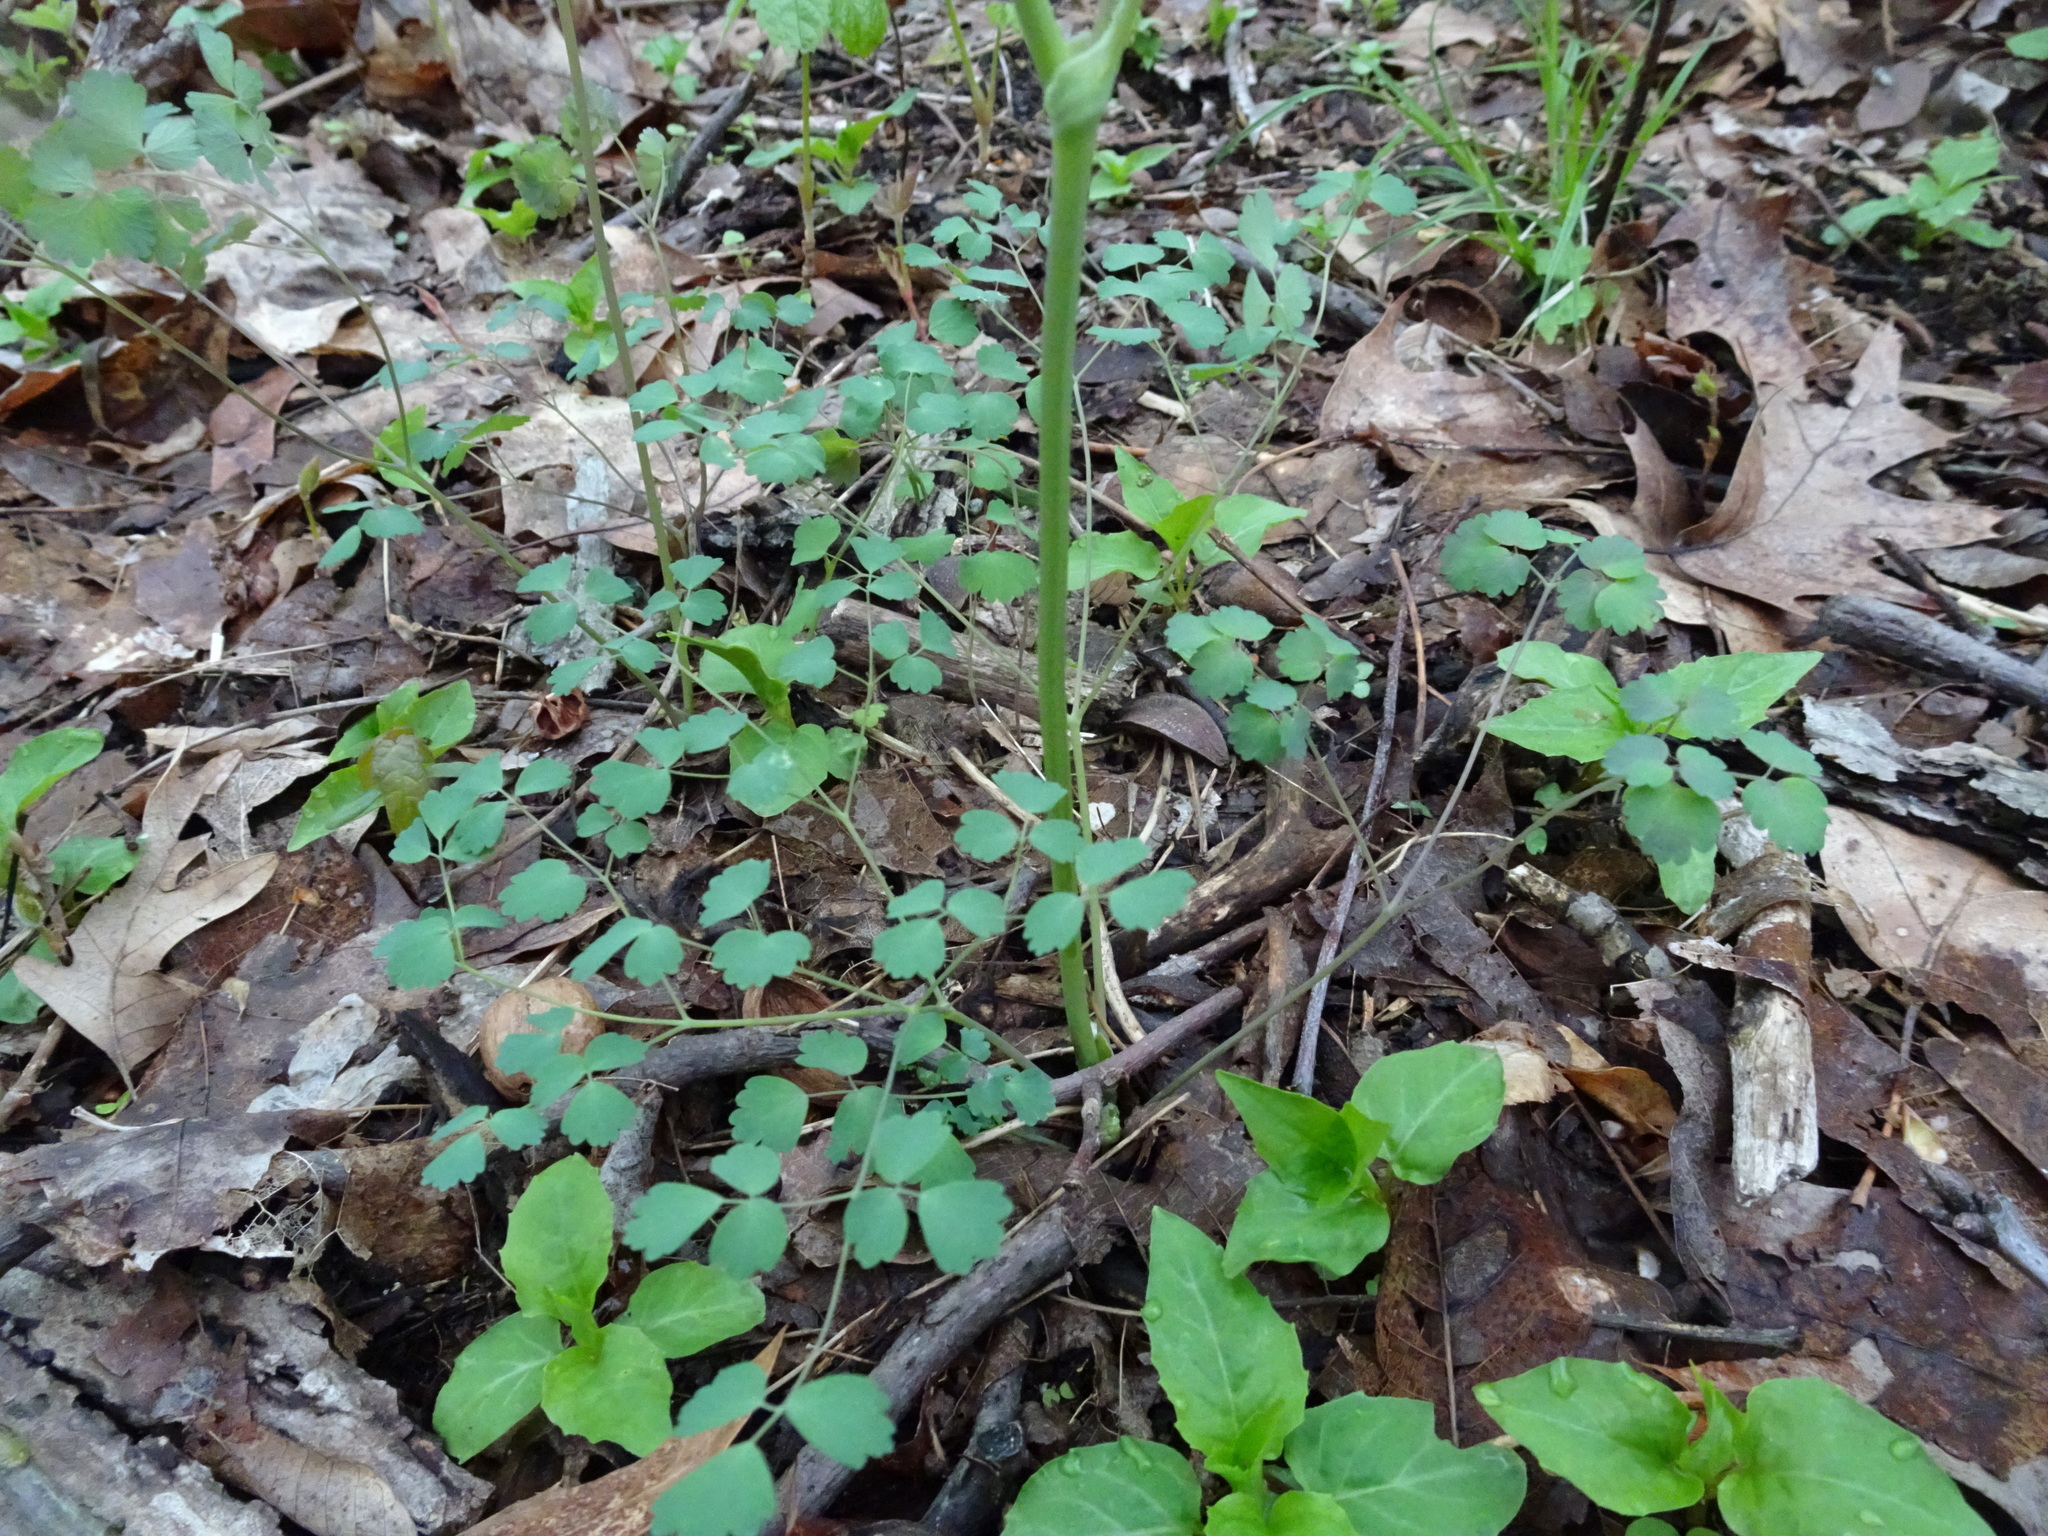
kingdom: Plantae
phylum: Tracheophyta
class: Magnoliopsida
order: Ranunculales
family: Ranunculaceae
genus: Thalictrum
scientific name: Thalictrum dioicum
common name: Early meadow-rue
